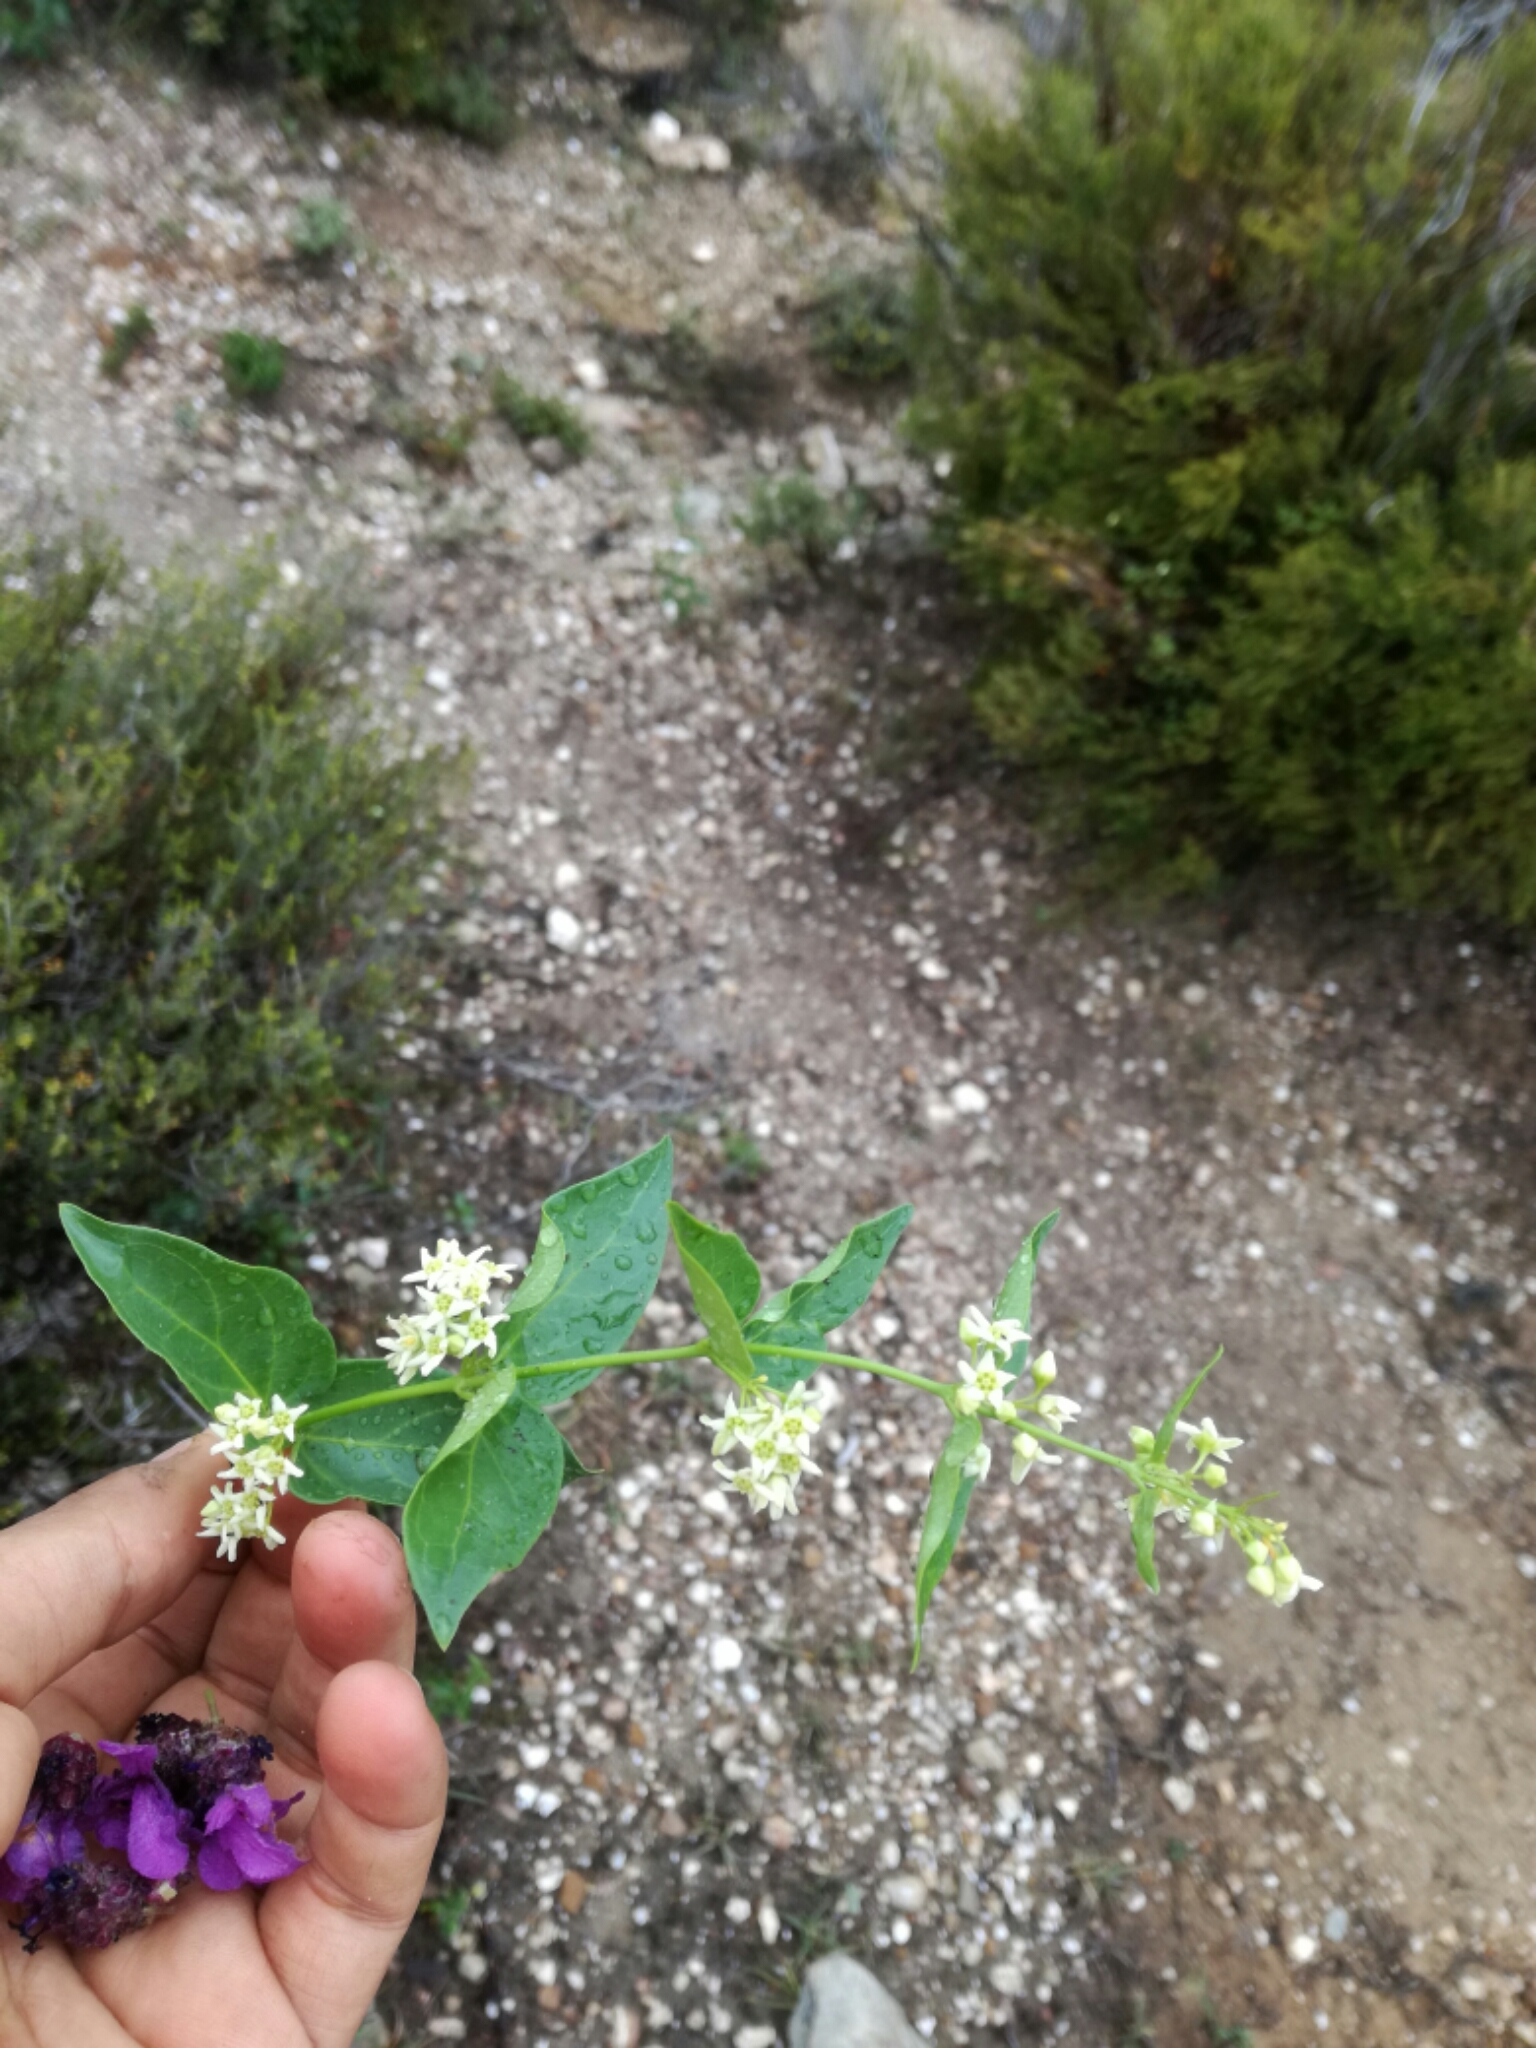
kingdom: Plantae
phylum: Tracheophyta
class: Magnoliopsida
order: Gentianales
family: Apocynaceae
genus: Vincetoxicum
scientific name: Vincetoxicum hirundinaria
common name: White swallowwort
